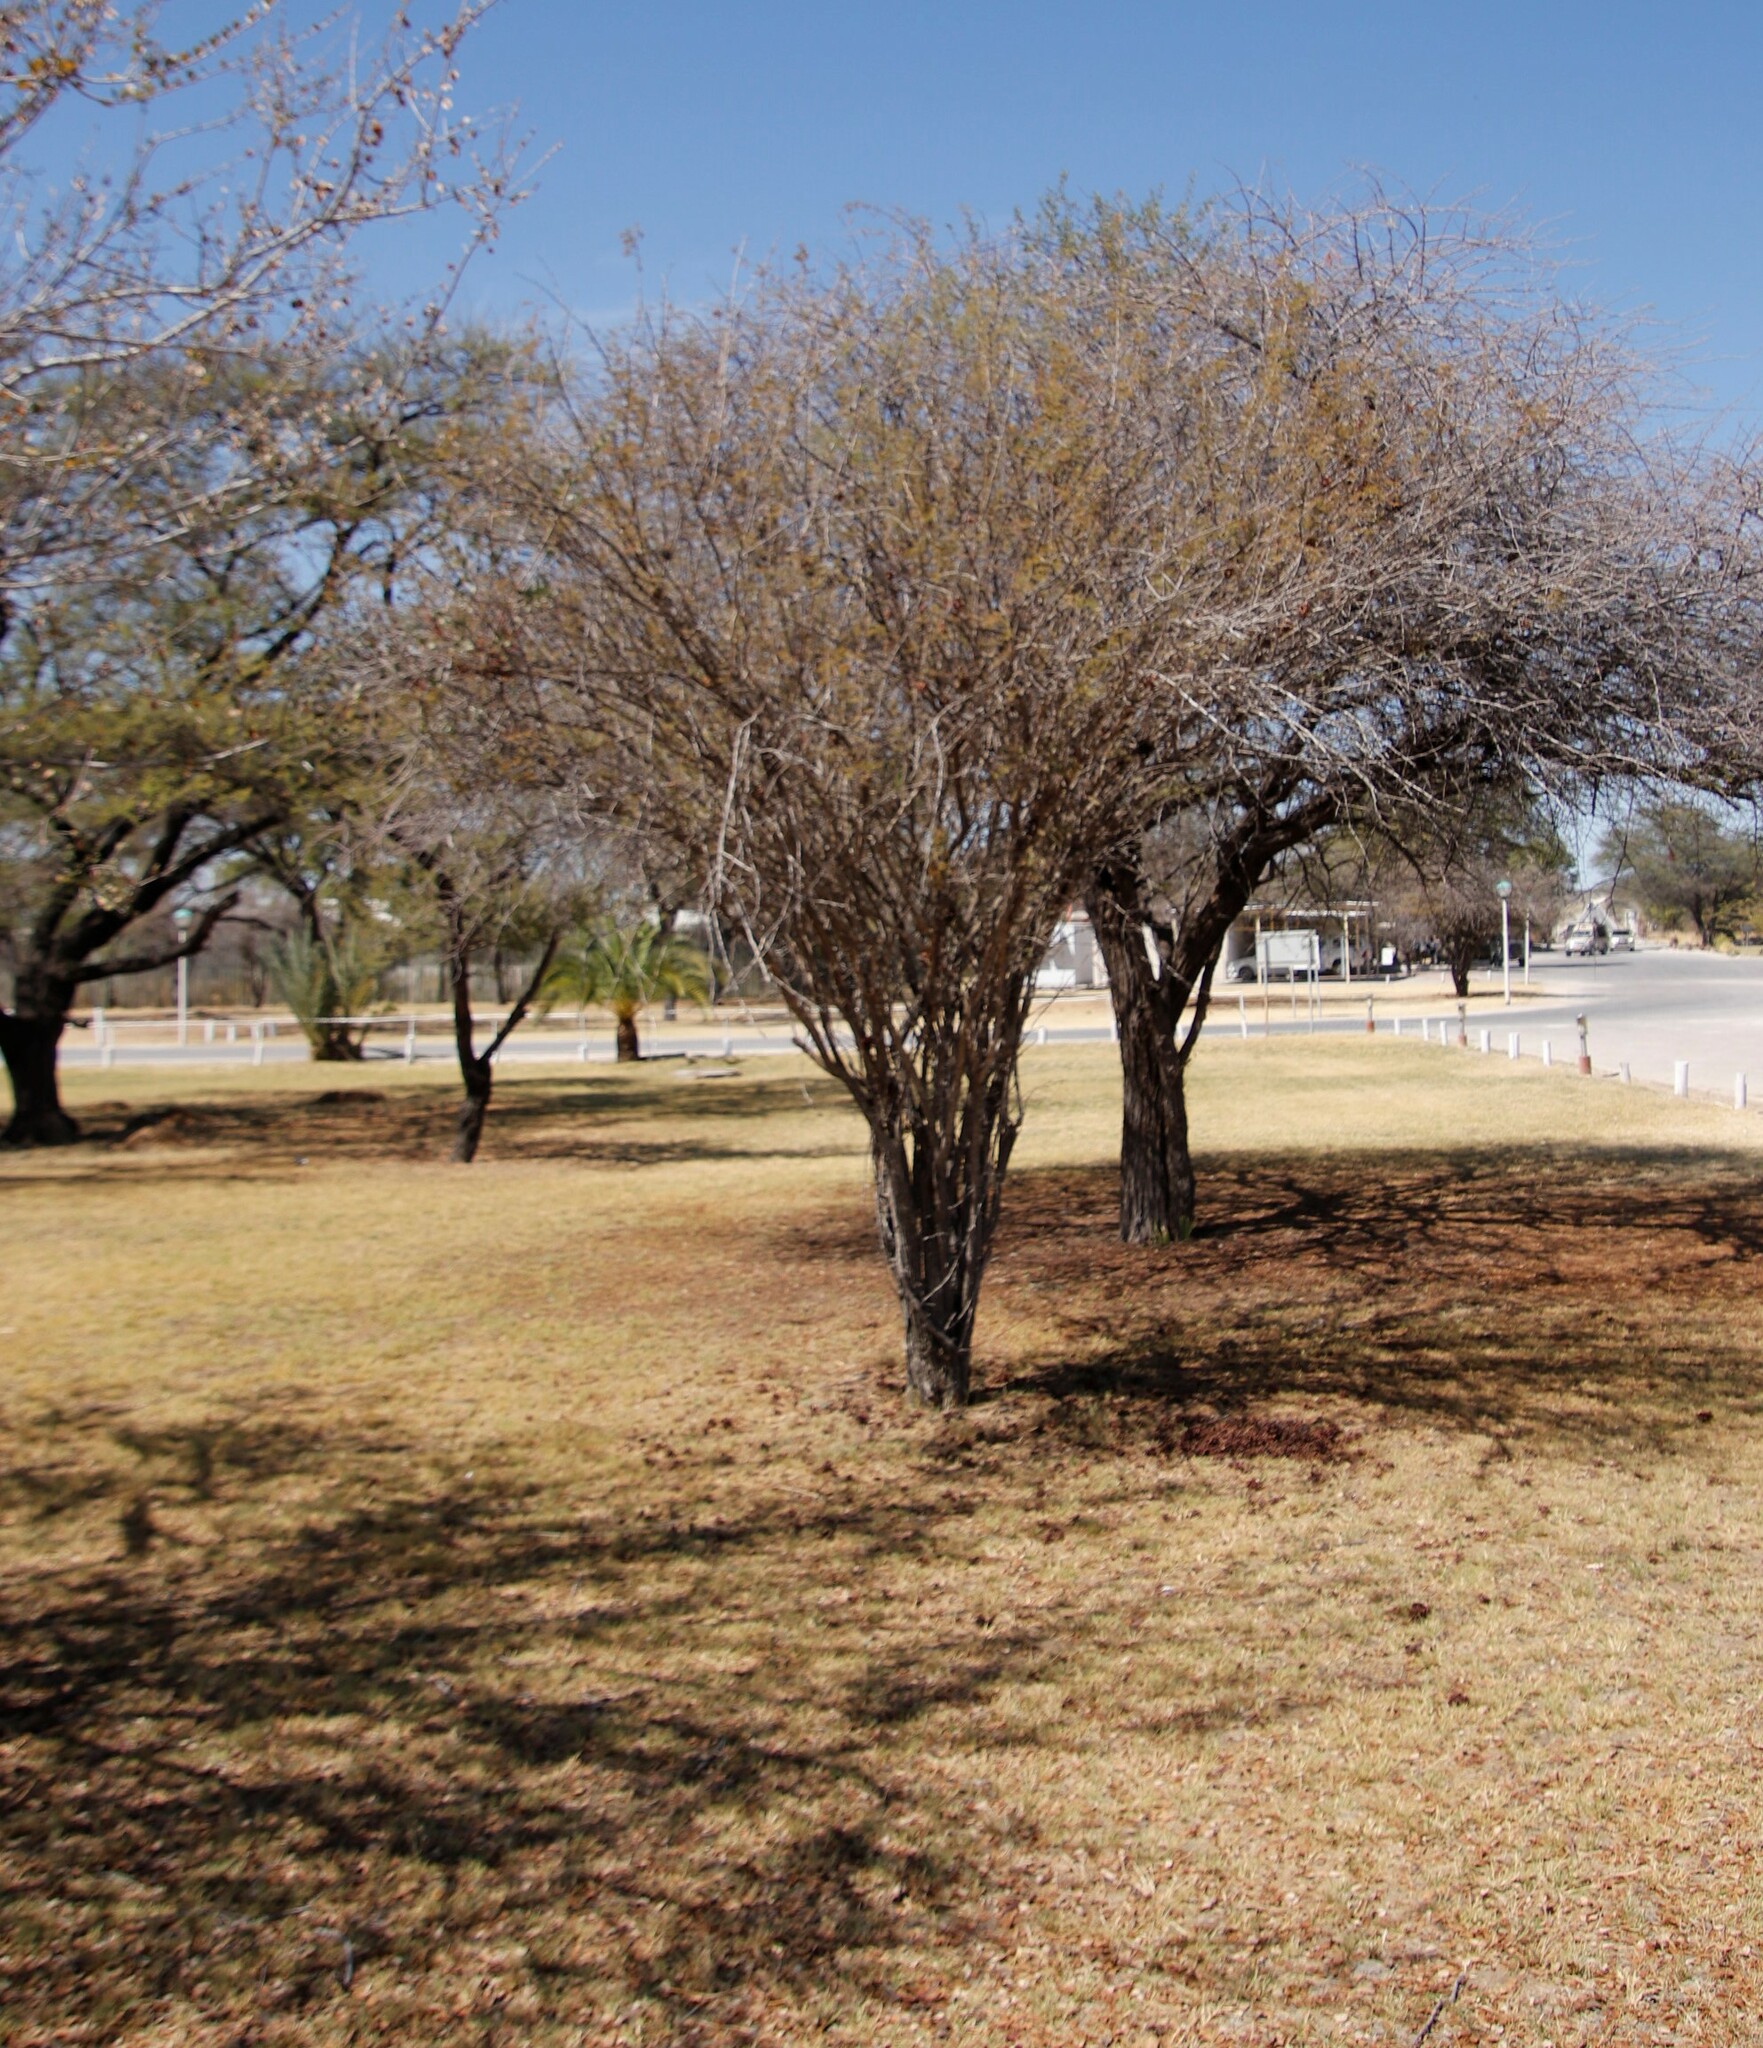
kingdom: Plantae
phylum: Tracheophyta
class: Magnoliopsida
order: Fabales
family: Fabaceae
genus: Dichrostachys
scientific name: Dichrostachys cinerea
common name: Sicklebush
